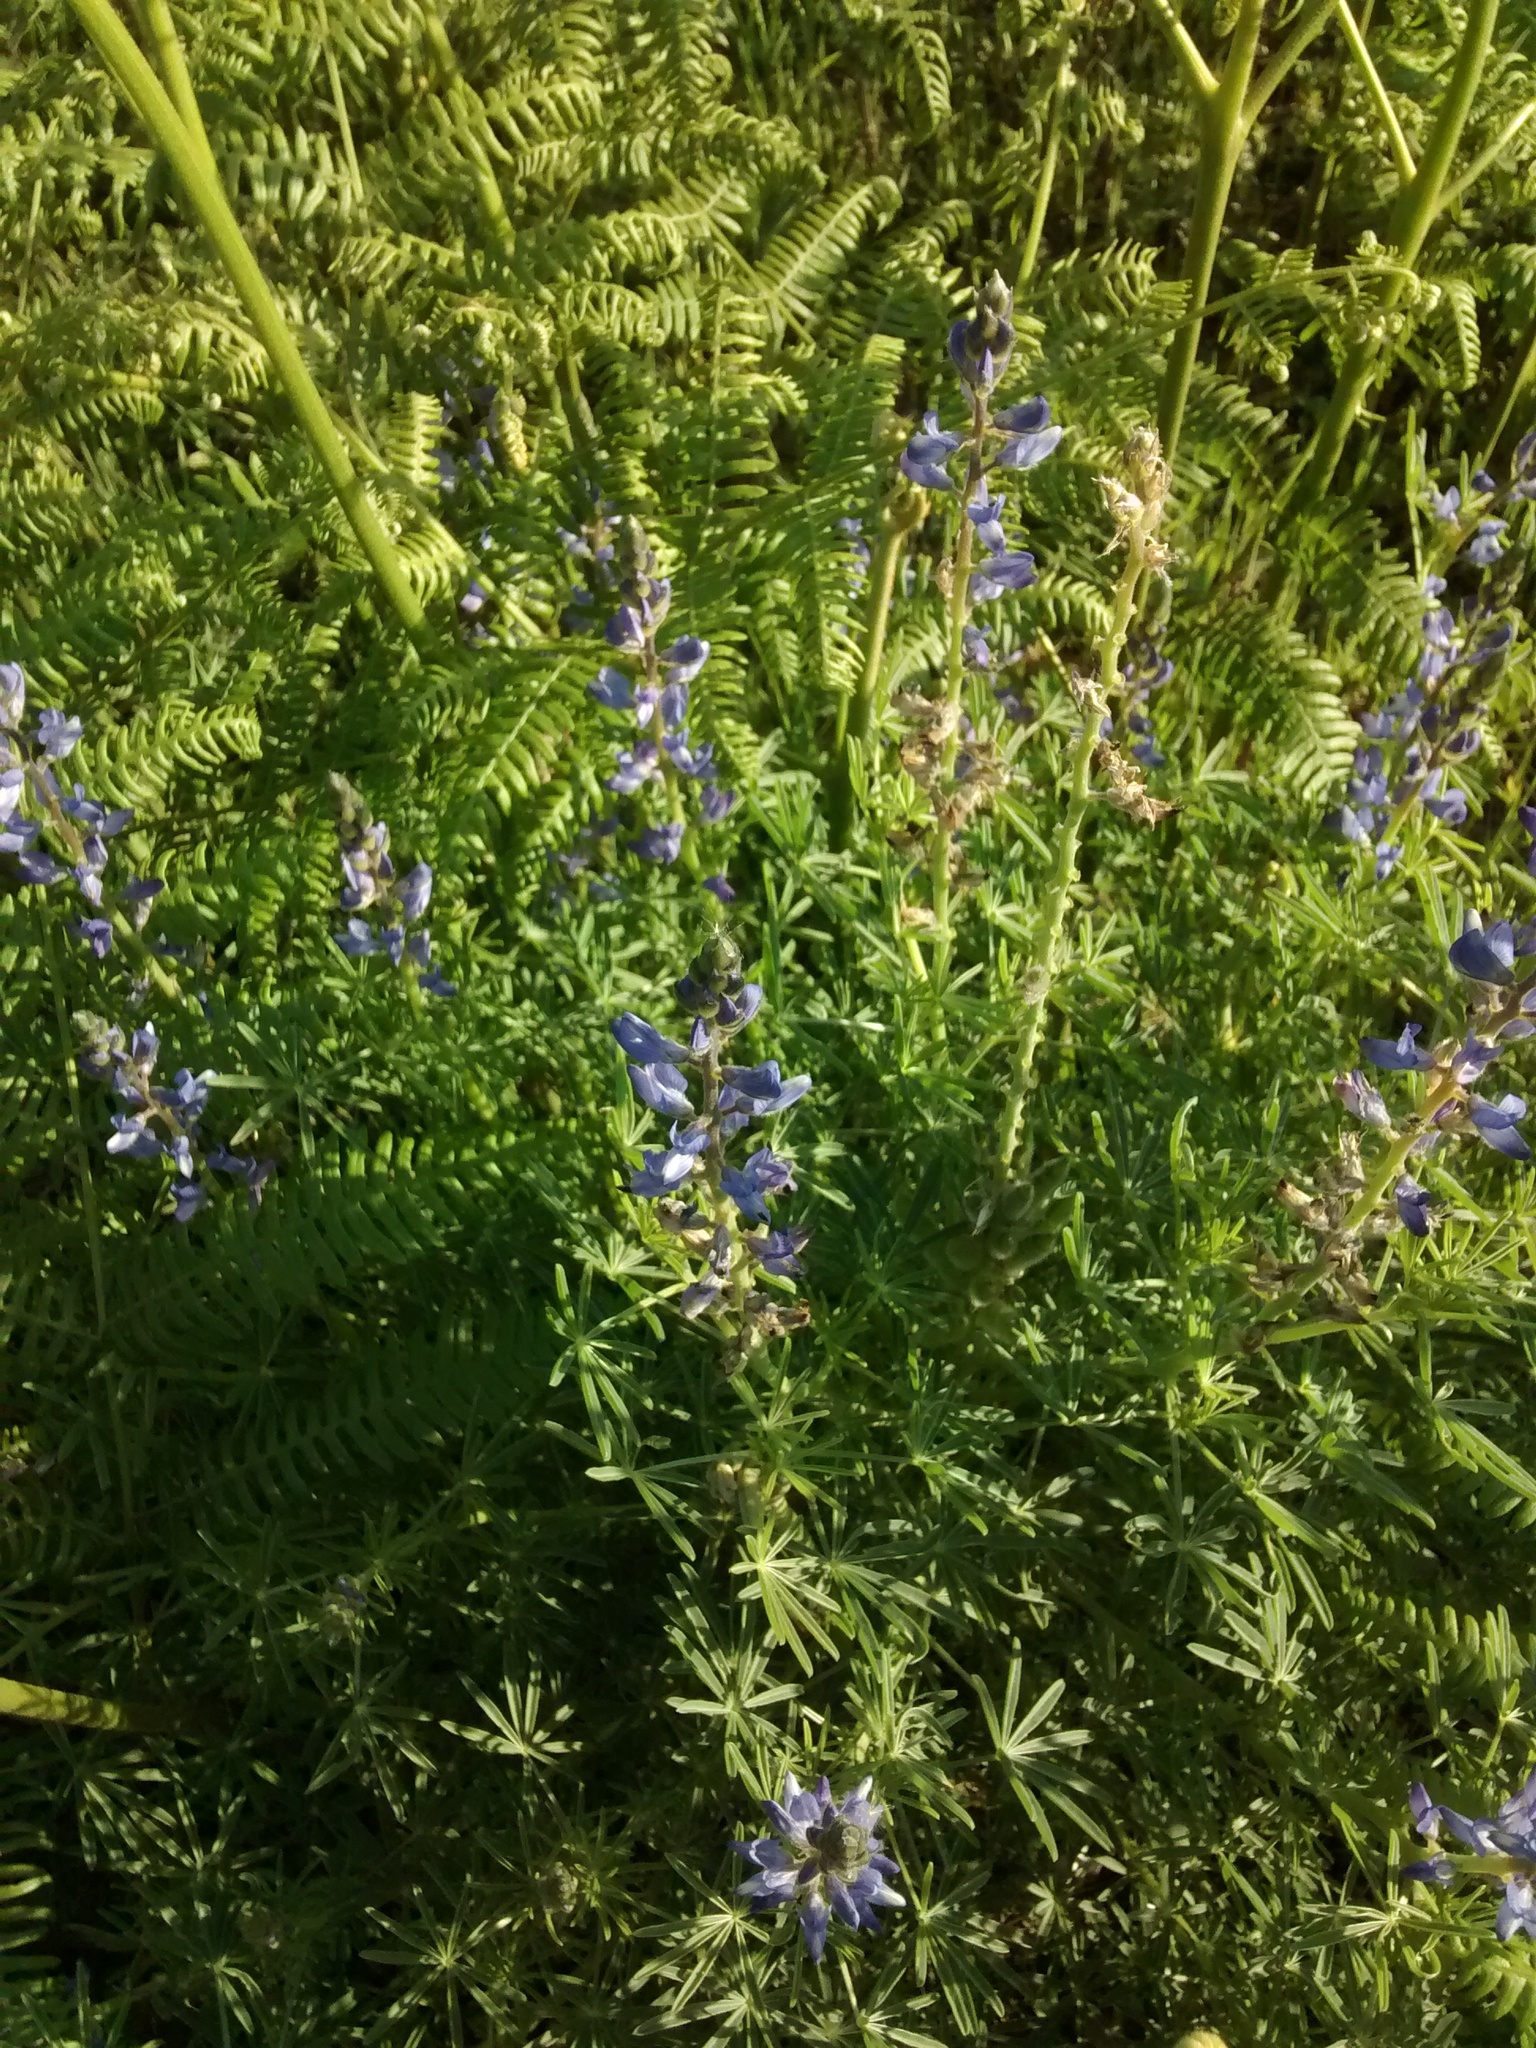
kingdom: Plantae
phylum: Tracheophyta
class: Magnoliopsida
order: Fabales
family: Fabaceae
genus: Lupinus
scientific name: Lupinus angustifolius
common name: Narrow-leaved lupin
